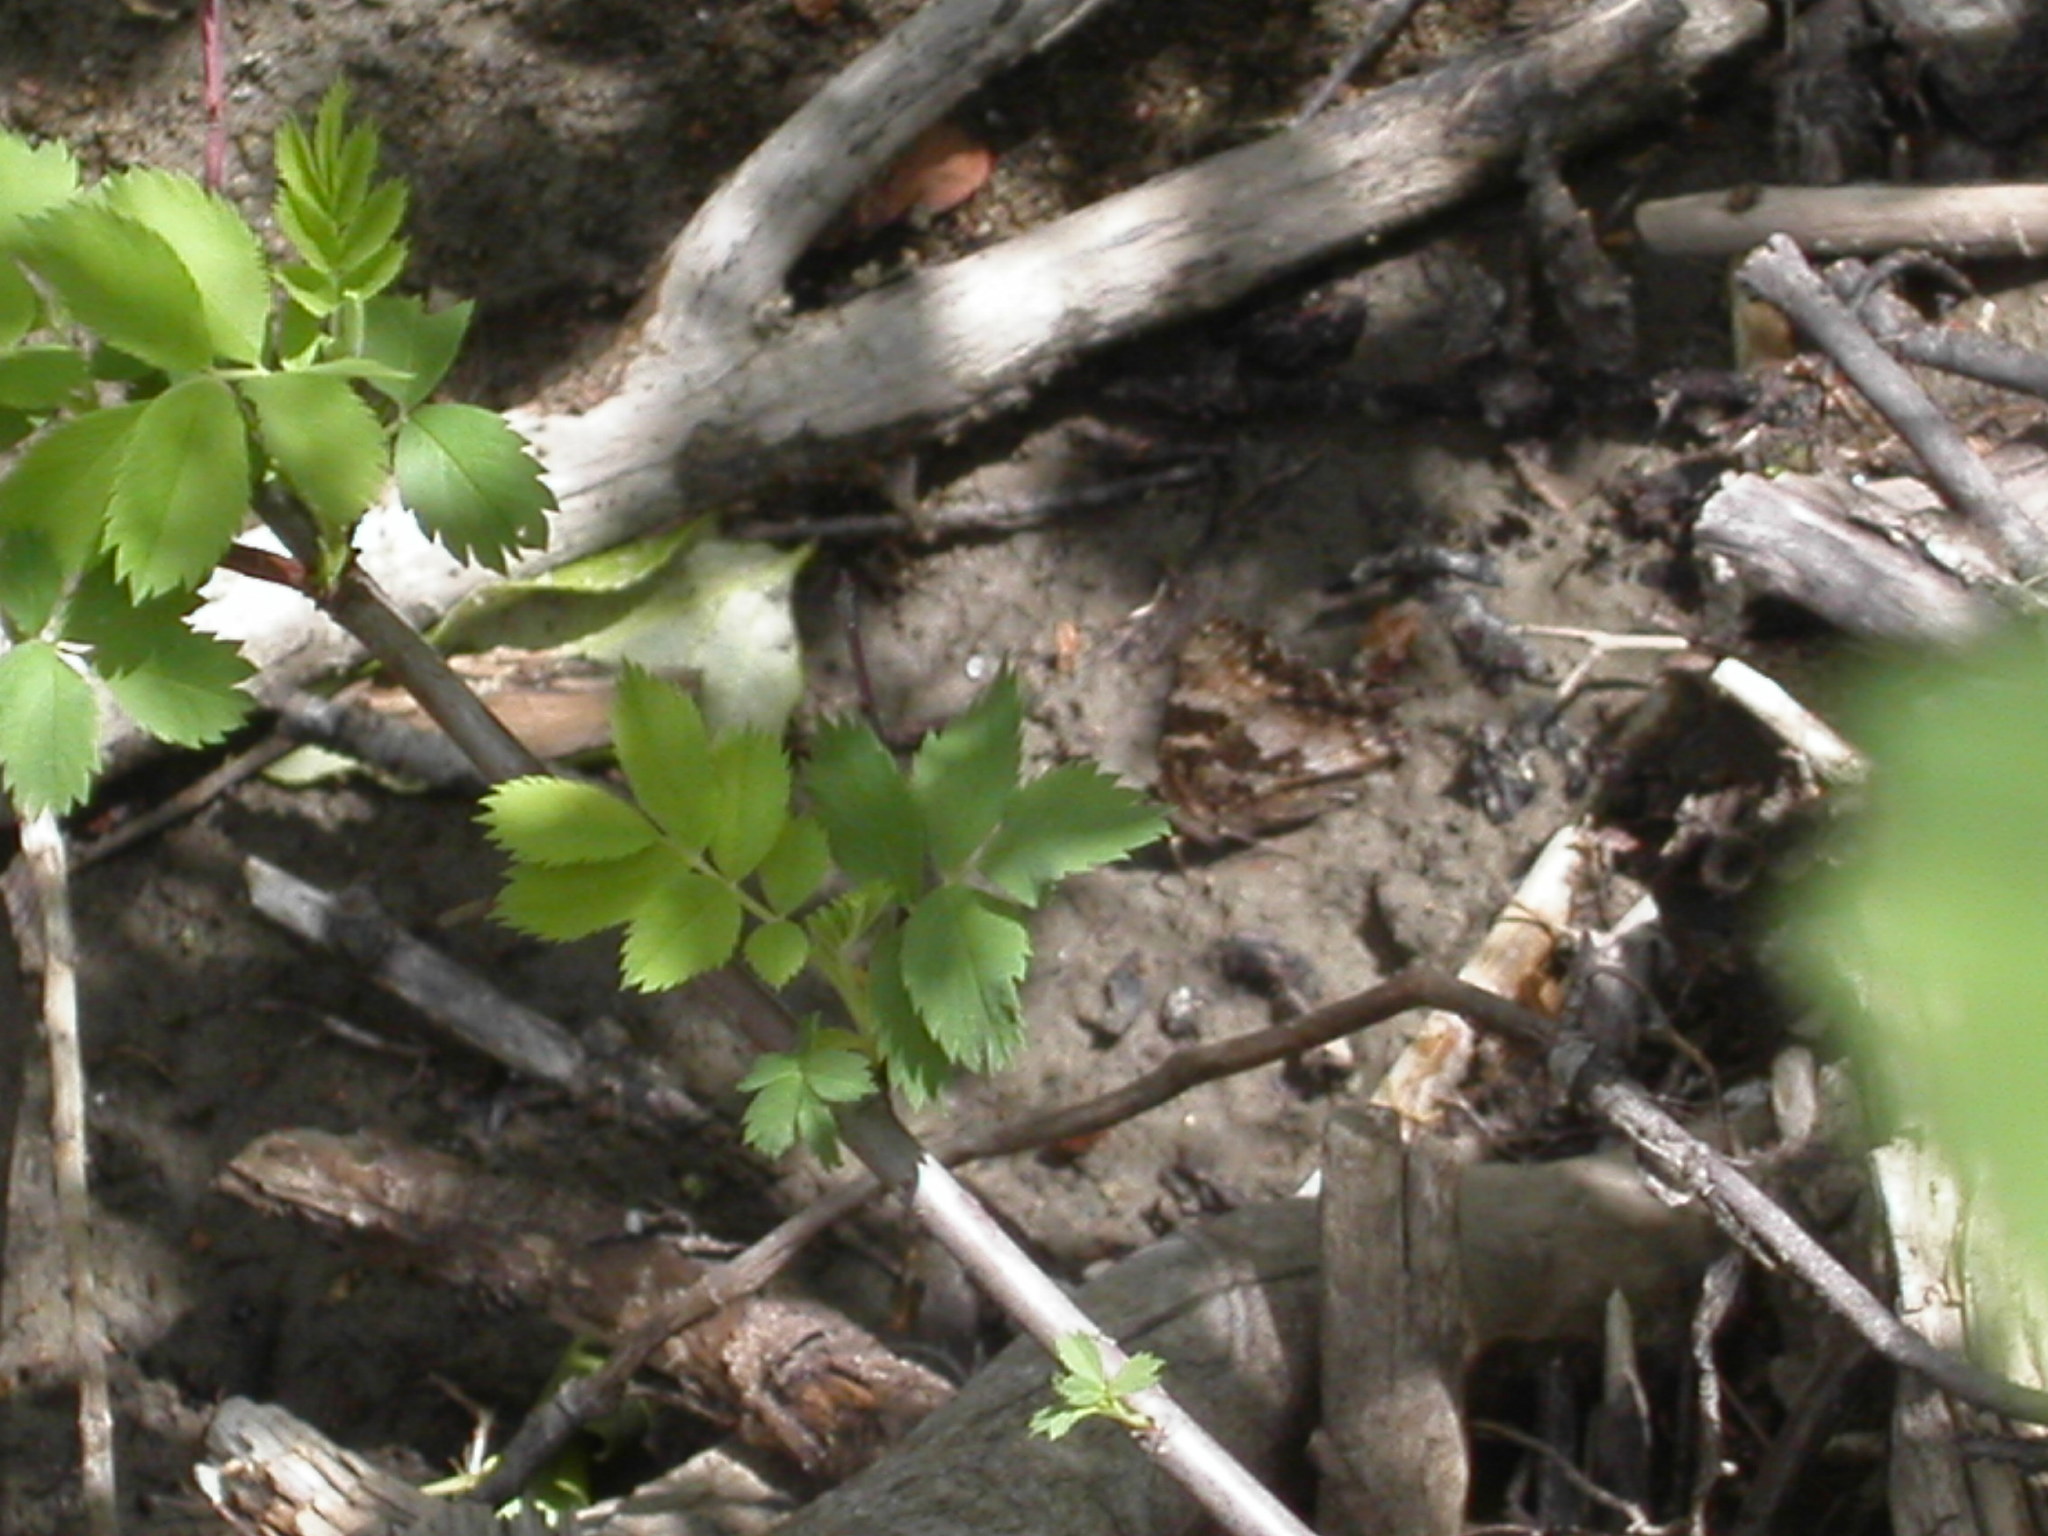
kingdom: Animalia
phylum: Arthropoda
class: Insecta
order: Lepidoptera
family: Nymphalidae
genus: Nymphalis
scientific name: Nymphalis californica
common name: California tortoiseshell
